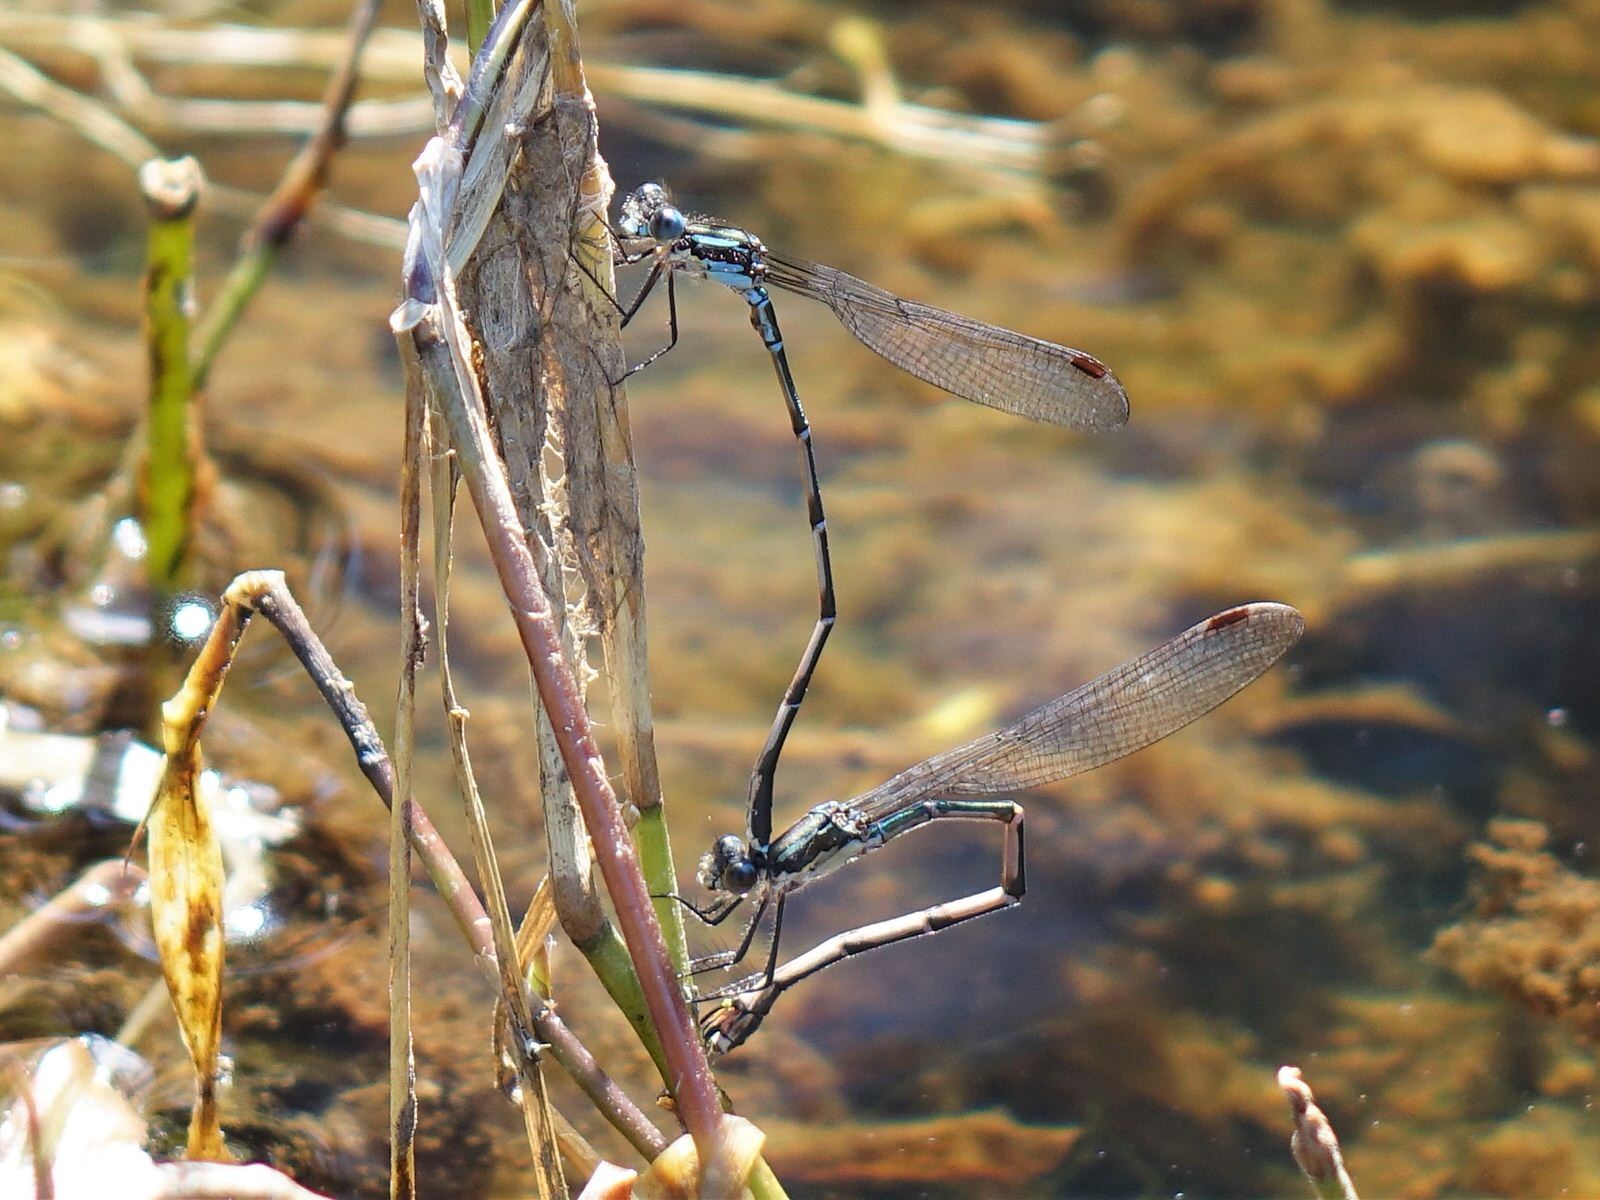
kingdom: Animalia
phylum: Arthropoda
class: Insecta
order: Odonata
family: Lestidae
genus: Austrolestes
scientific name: Austrolestes colensonis
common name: Blue damselfly
